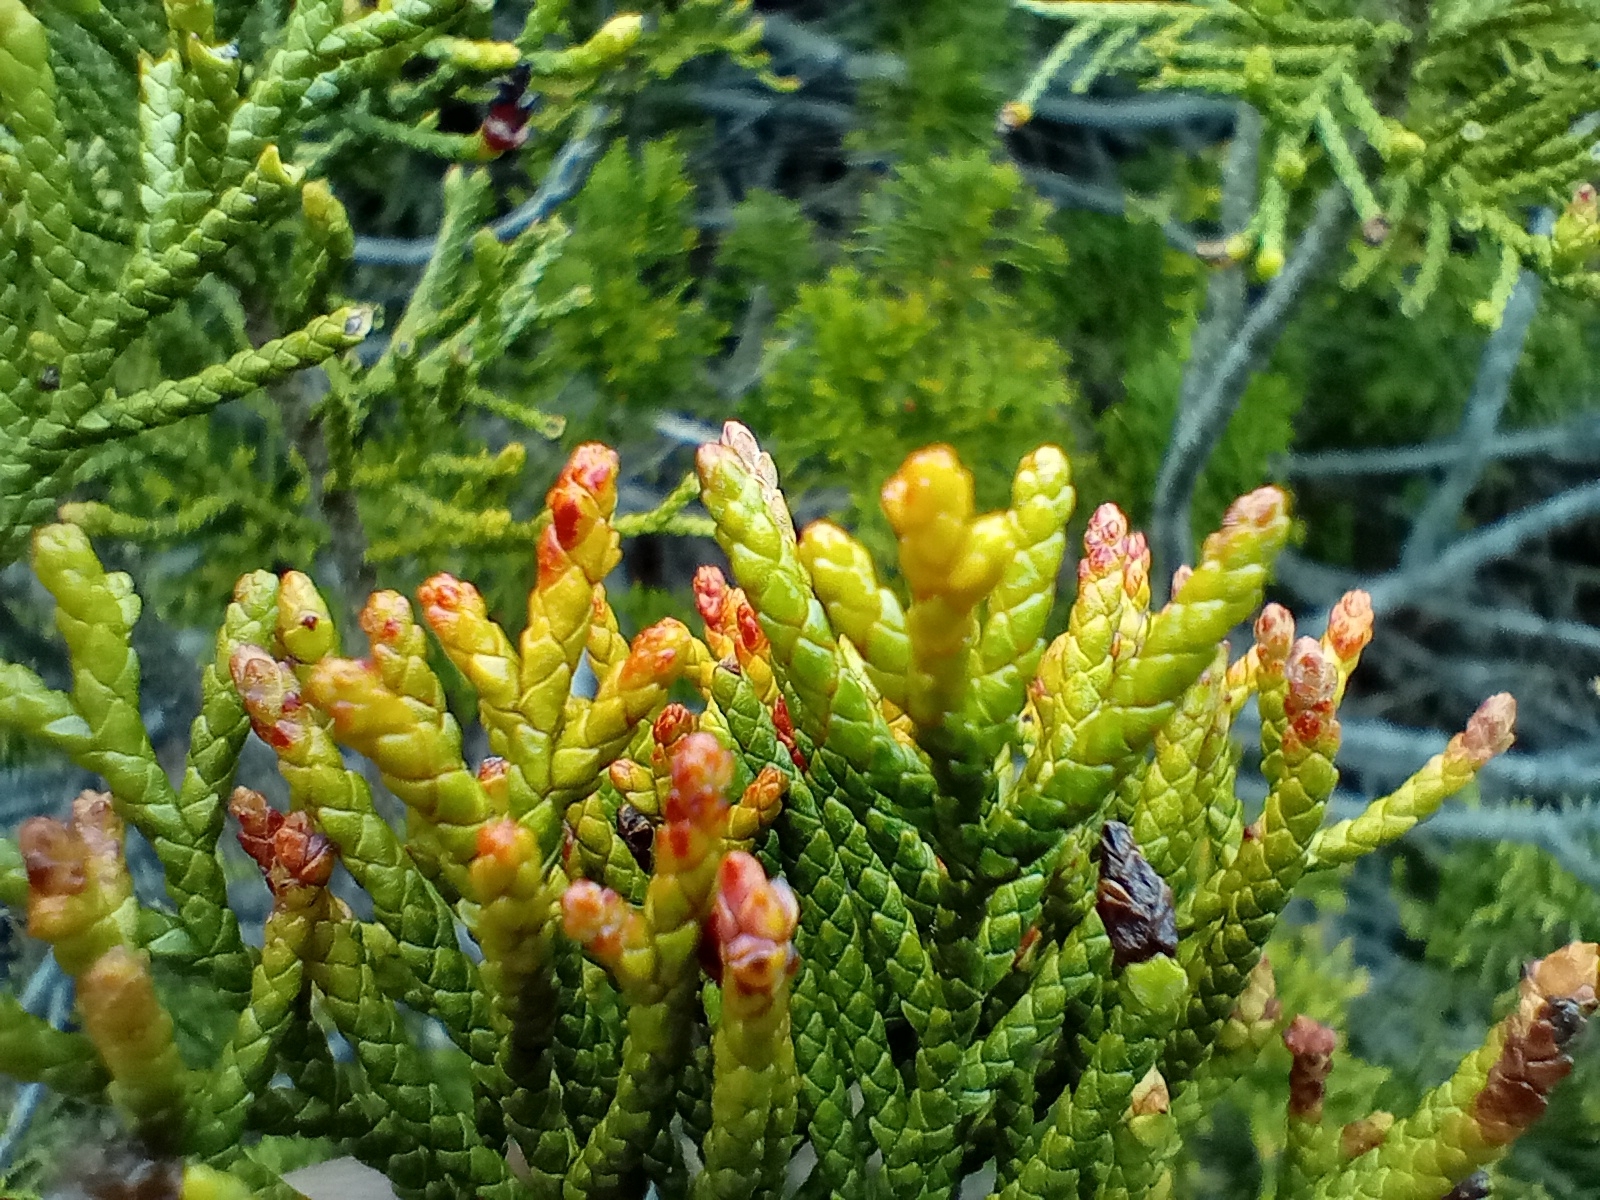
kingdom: Plantae
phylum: Tracheophyta
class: Pinopsida
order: Pinales
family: Podocarpaceae
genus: Halocarpus
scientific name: Halocarpus bidwillii
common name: Bog pine
